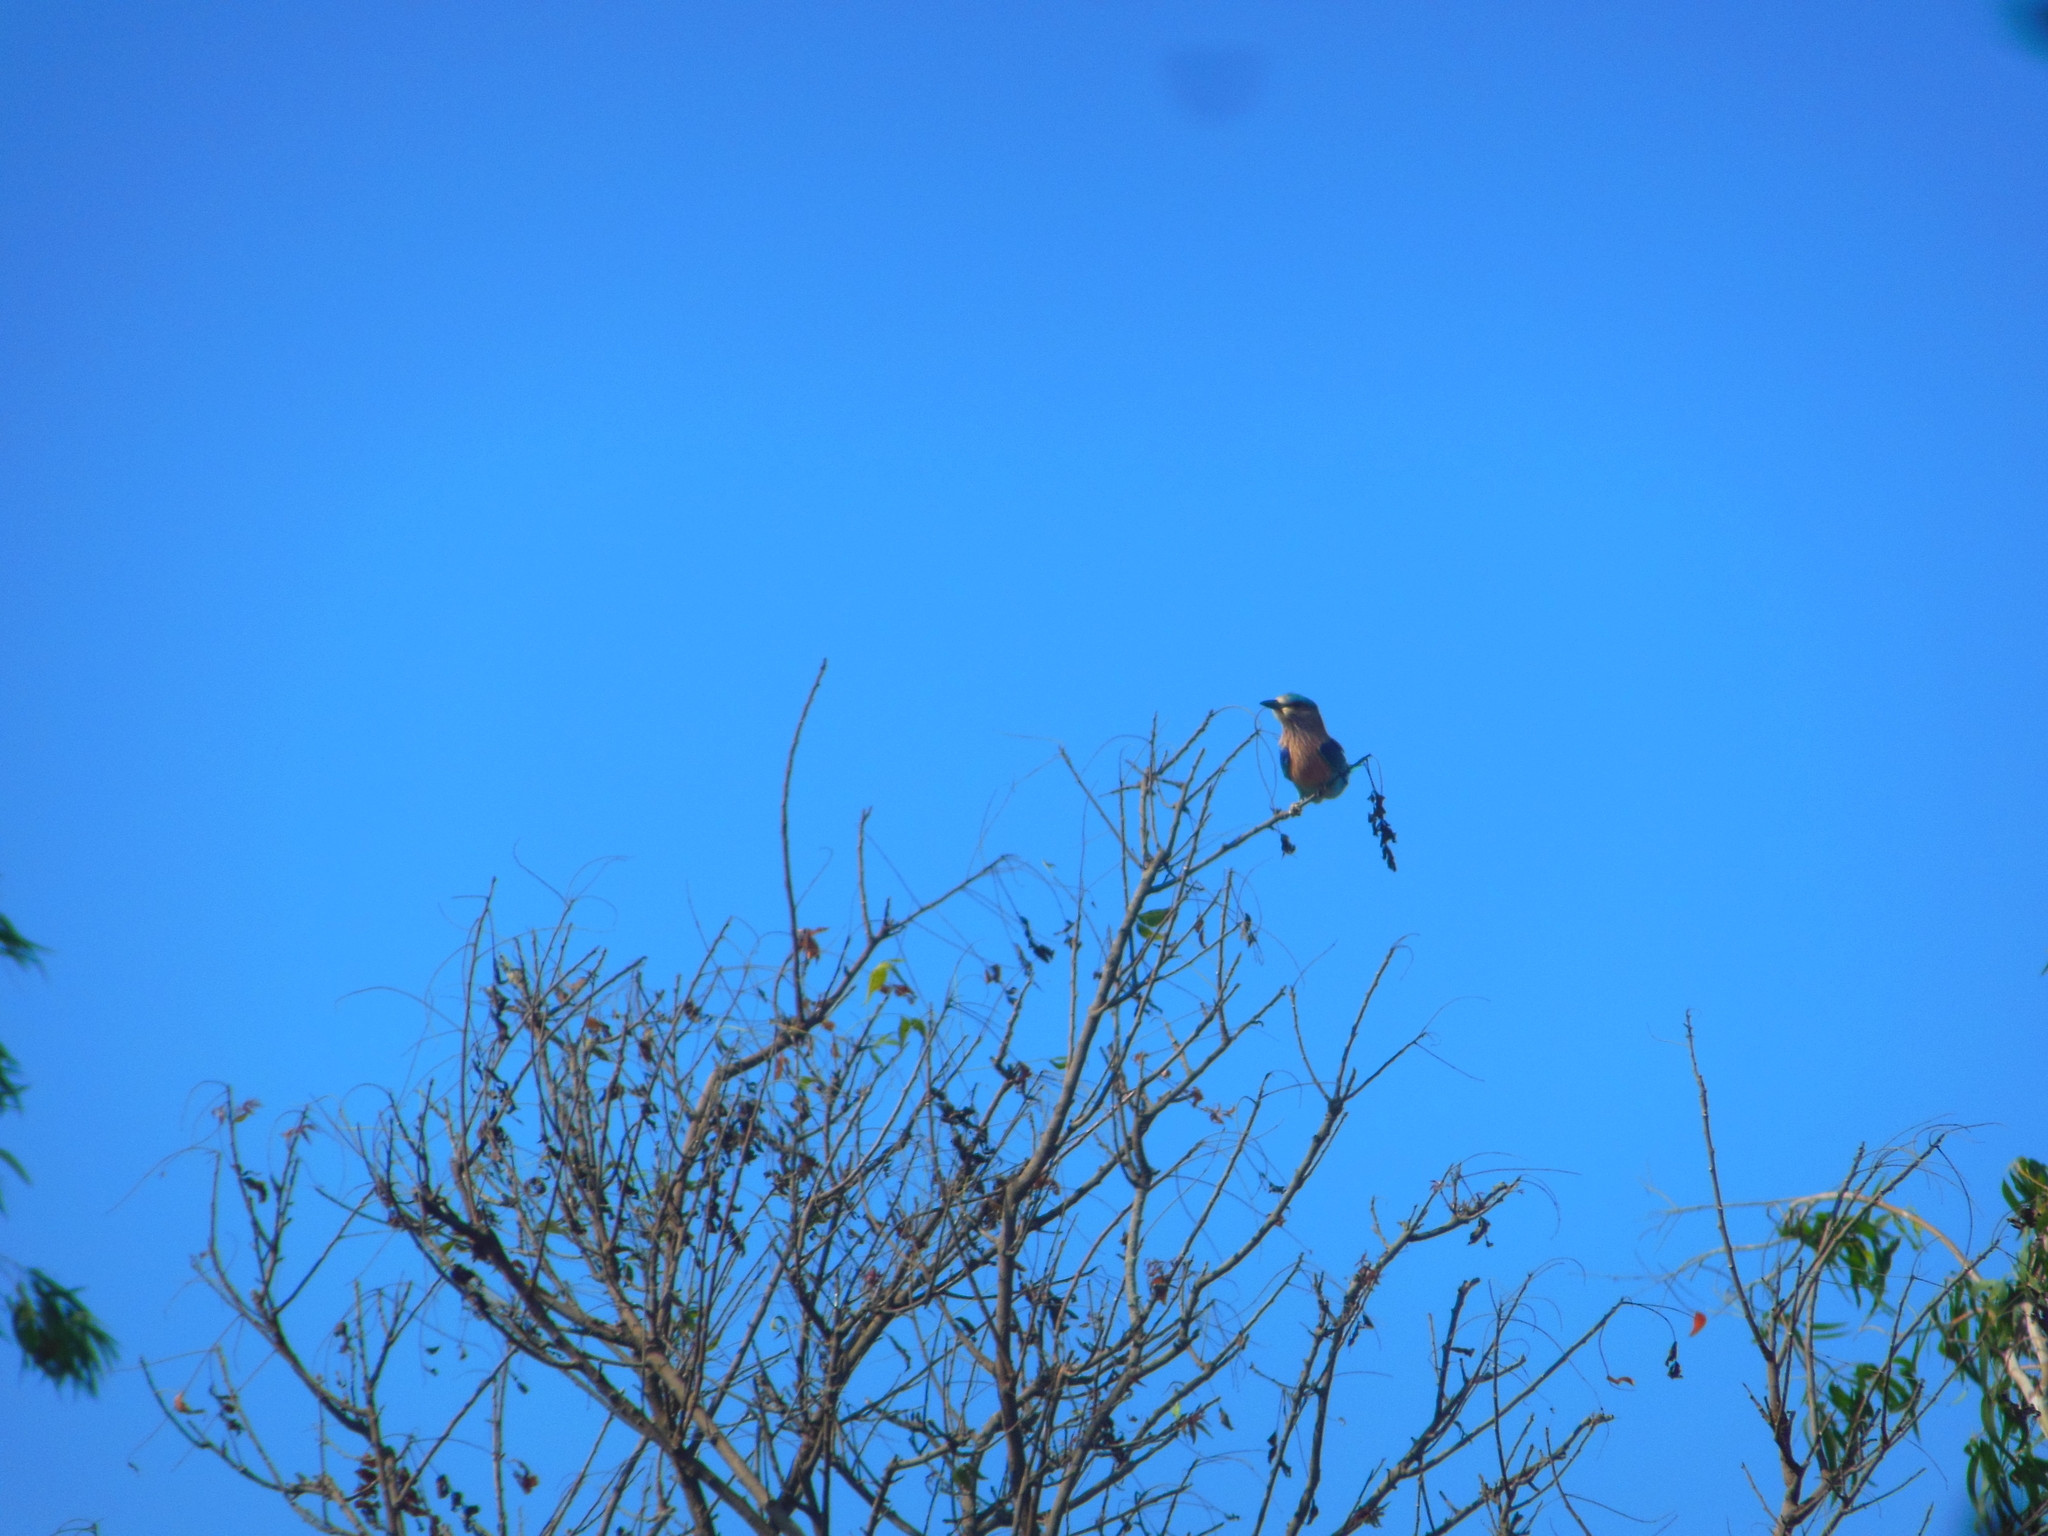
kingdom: Animalia
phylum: Chordata
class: Aves
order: Coraciiformes
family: Coraciidae
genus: Coracias
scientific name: Coracias benghalensis
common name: Indian roller
